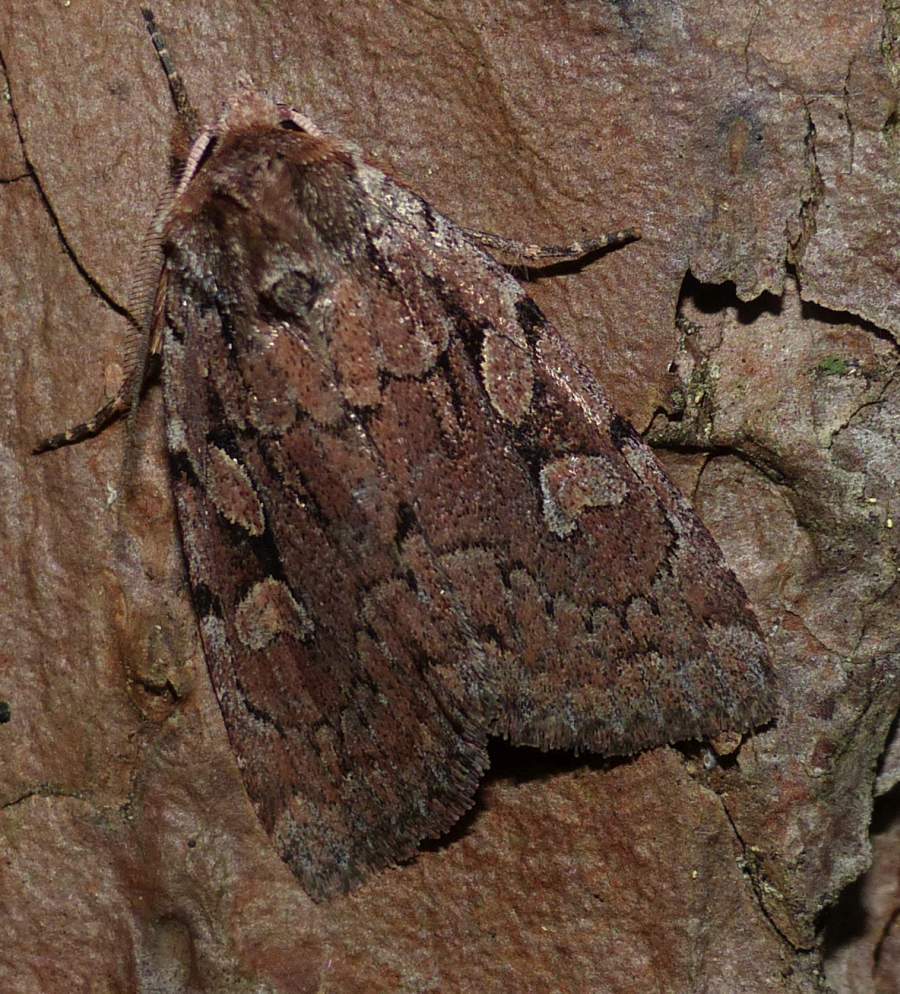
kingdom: Animalia
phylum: Arthropoda
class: Insecta
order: Lepidoptera
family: Noctuidae
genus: Xestia
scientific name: Xestia praevia
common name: Praevia dart
